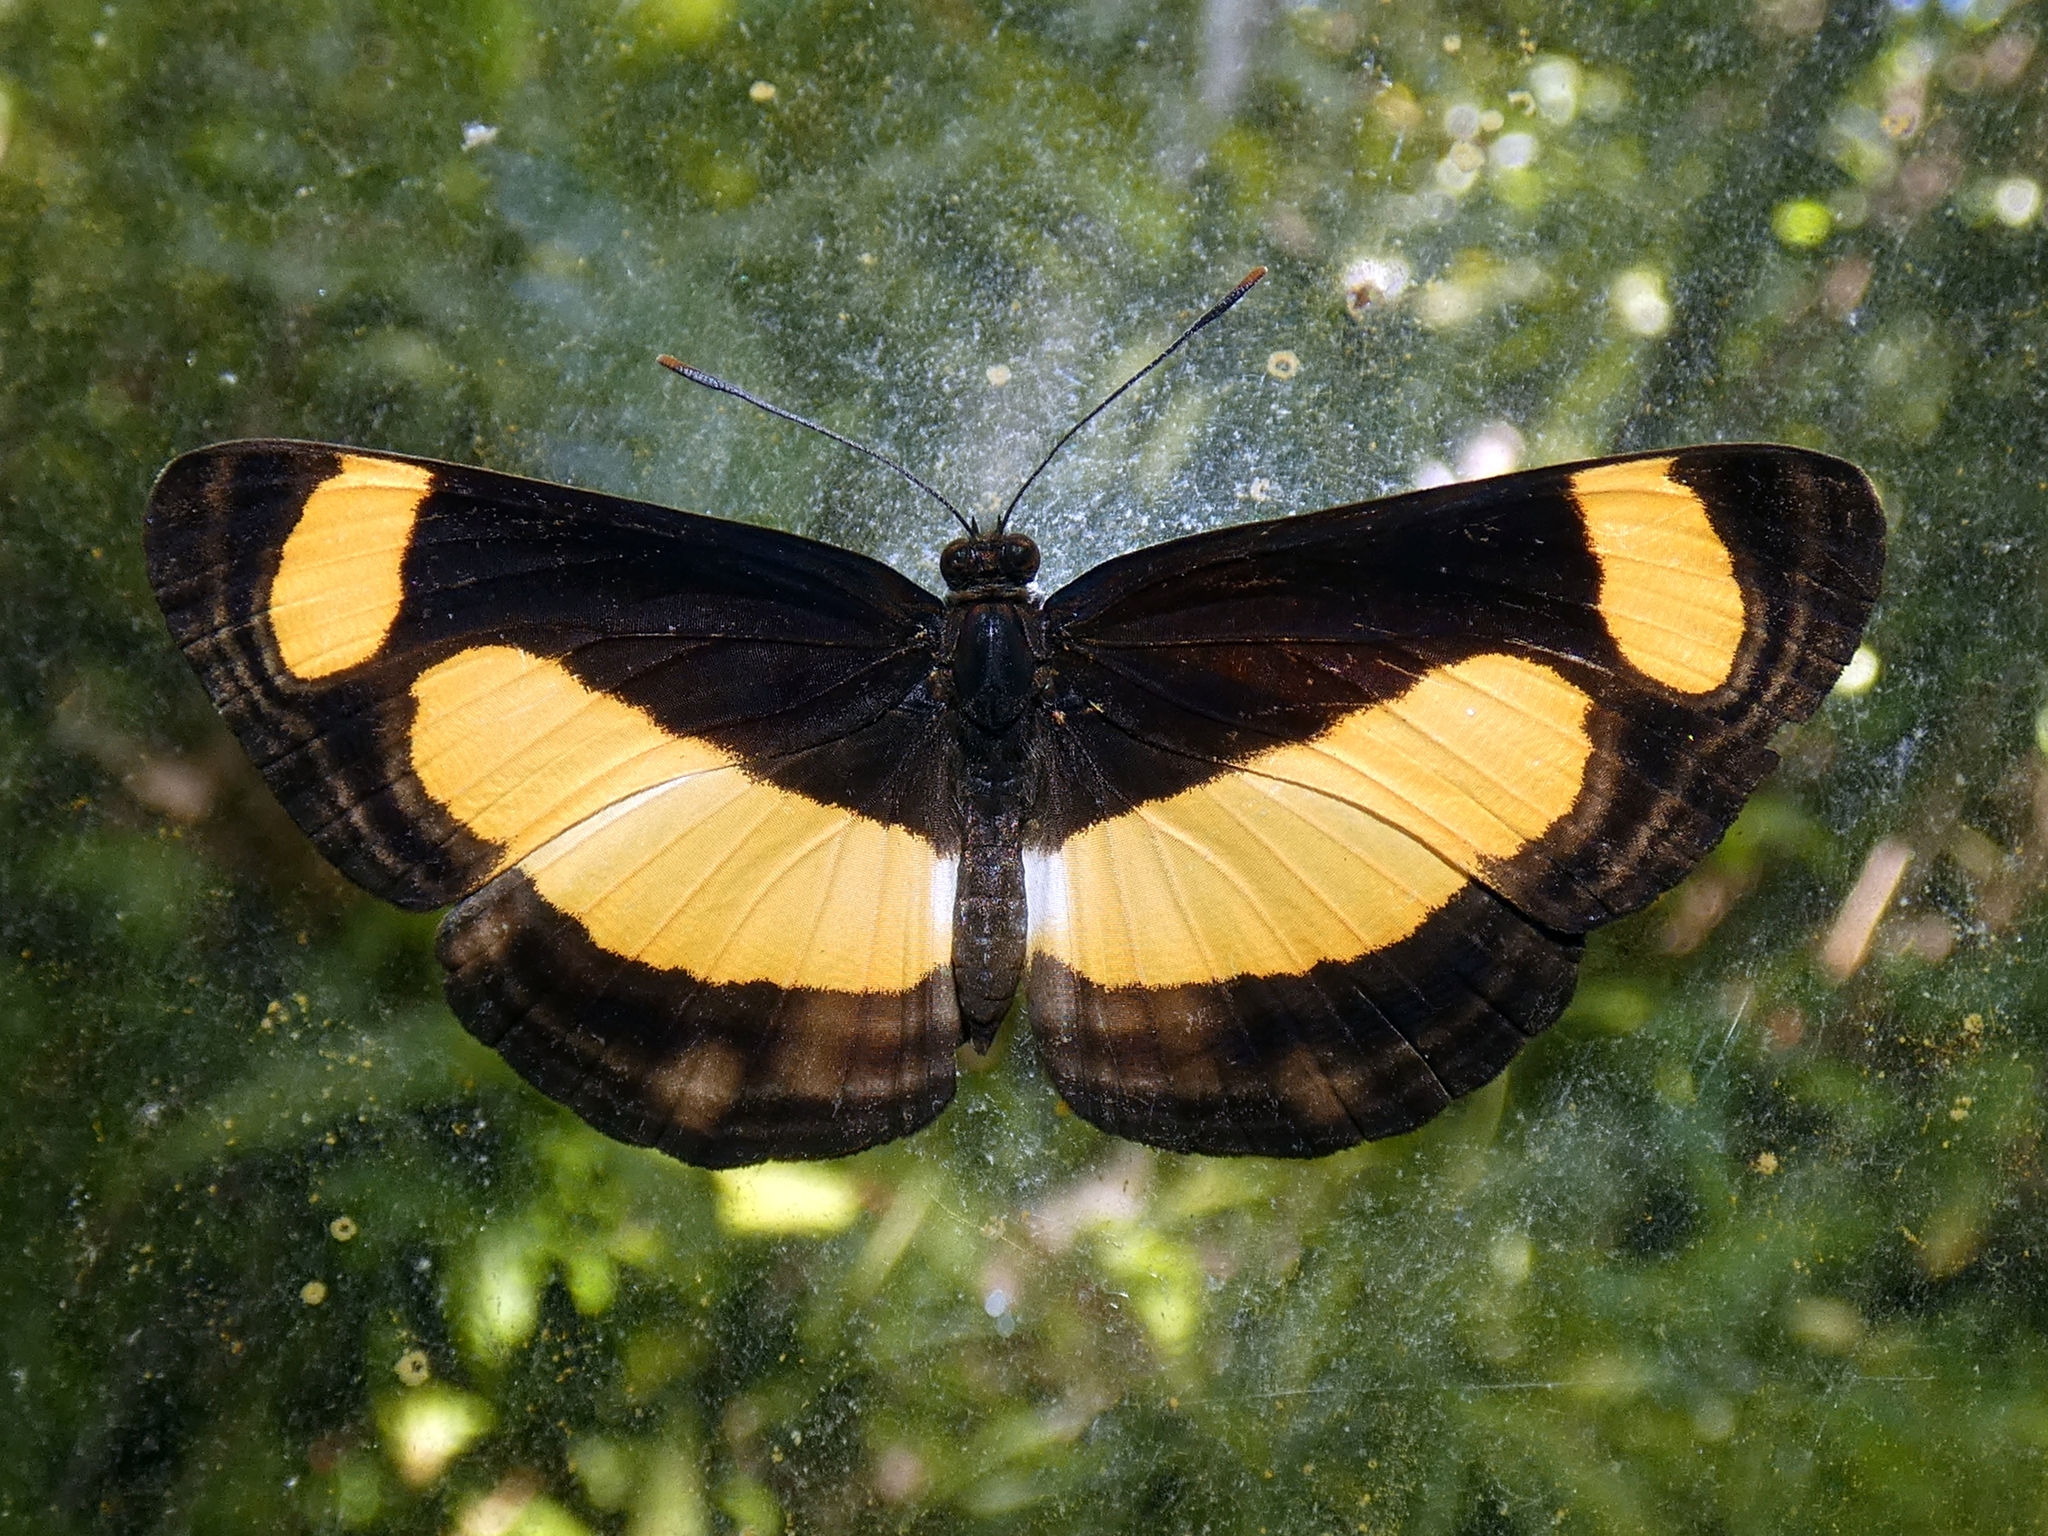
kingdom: Animalia
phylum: Arthropoda
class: Insecta
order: Lepidoptera
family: Nymphalidae
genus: Pantoporia
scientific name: Pantoporia consimilis
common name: Orange plane
